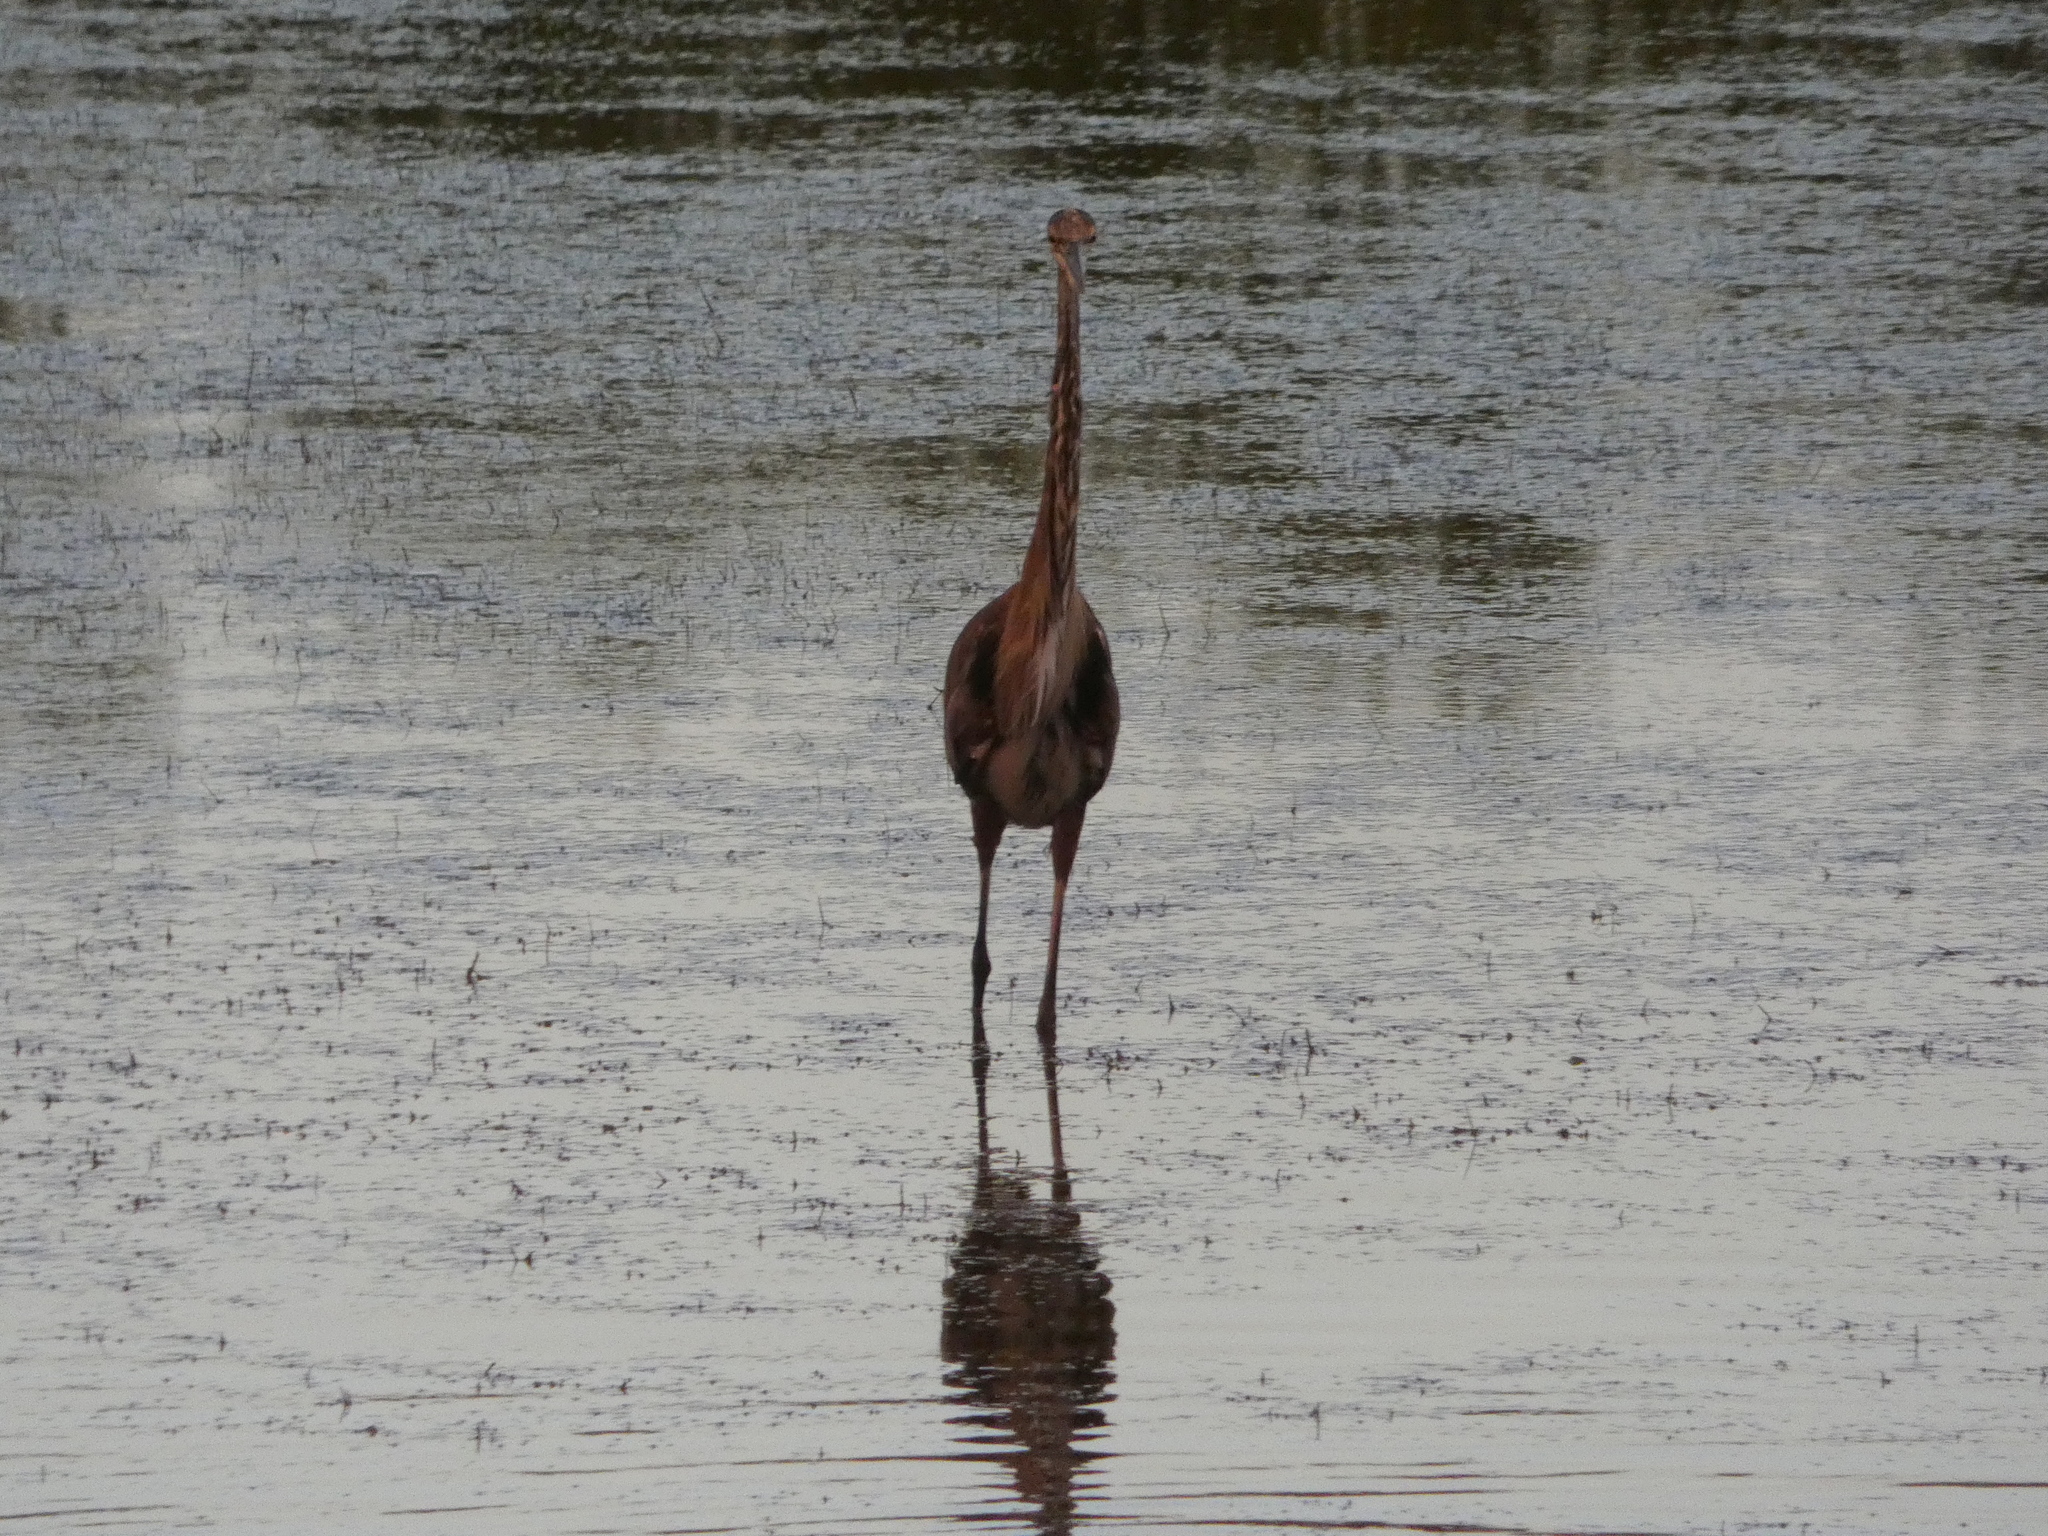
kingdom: Animalia
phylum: Chordata
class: Aves
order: Pelecaniformes
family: Ardeidae
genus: Ardea
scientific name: Ardea herodias
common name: Great blue heron
